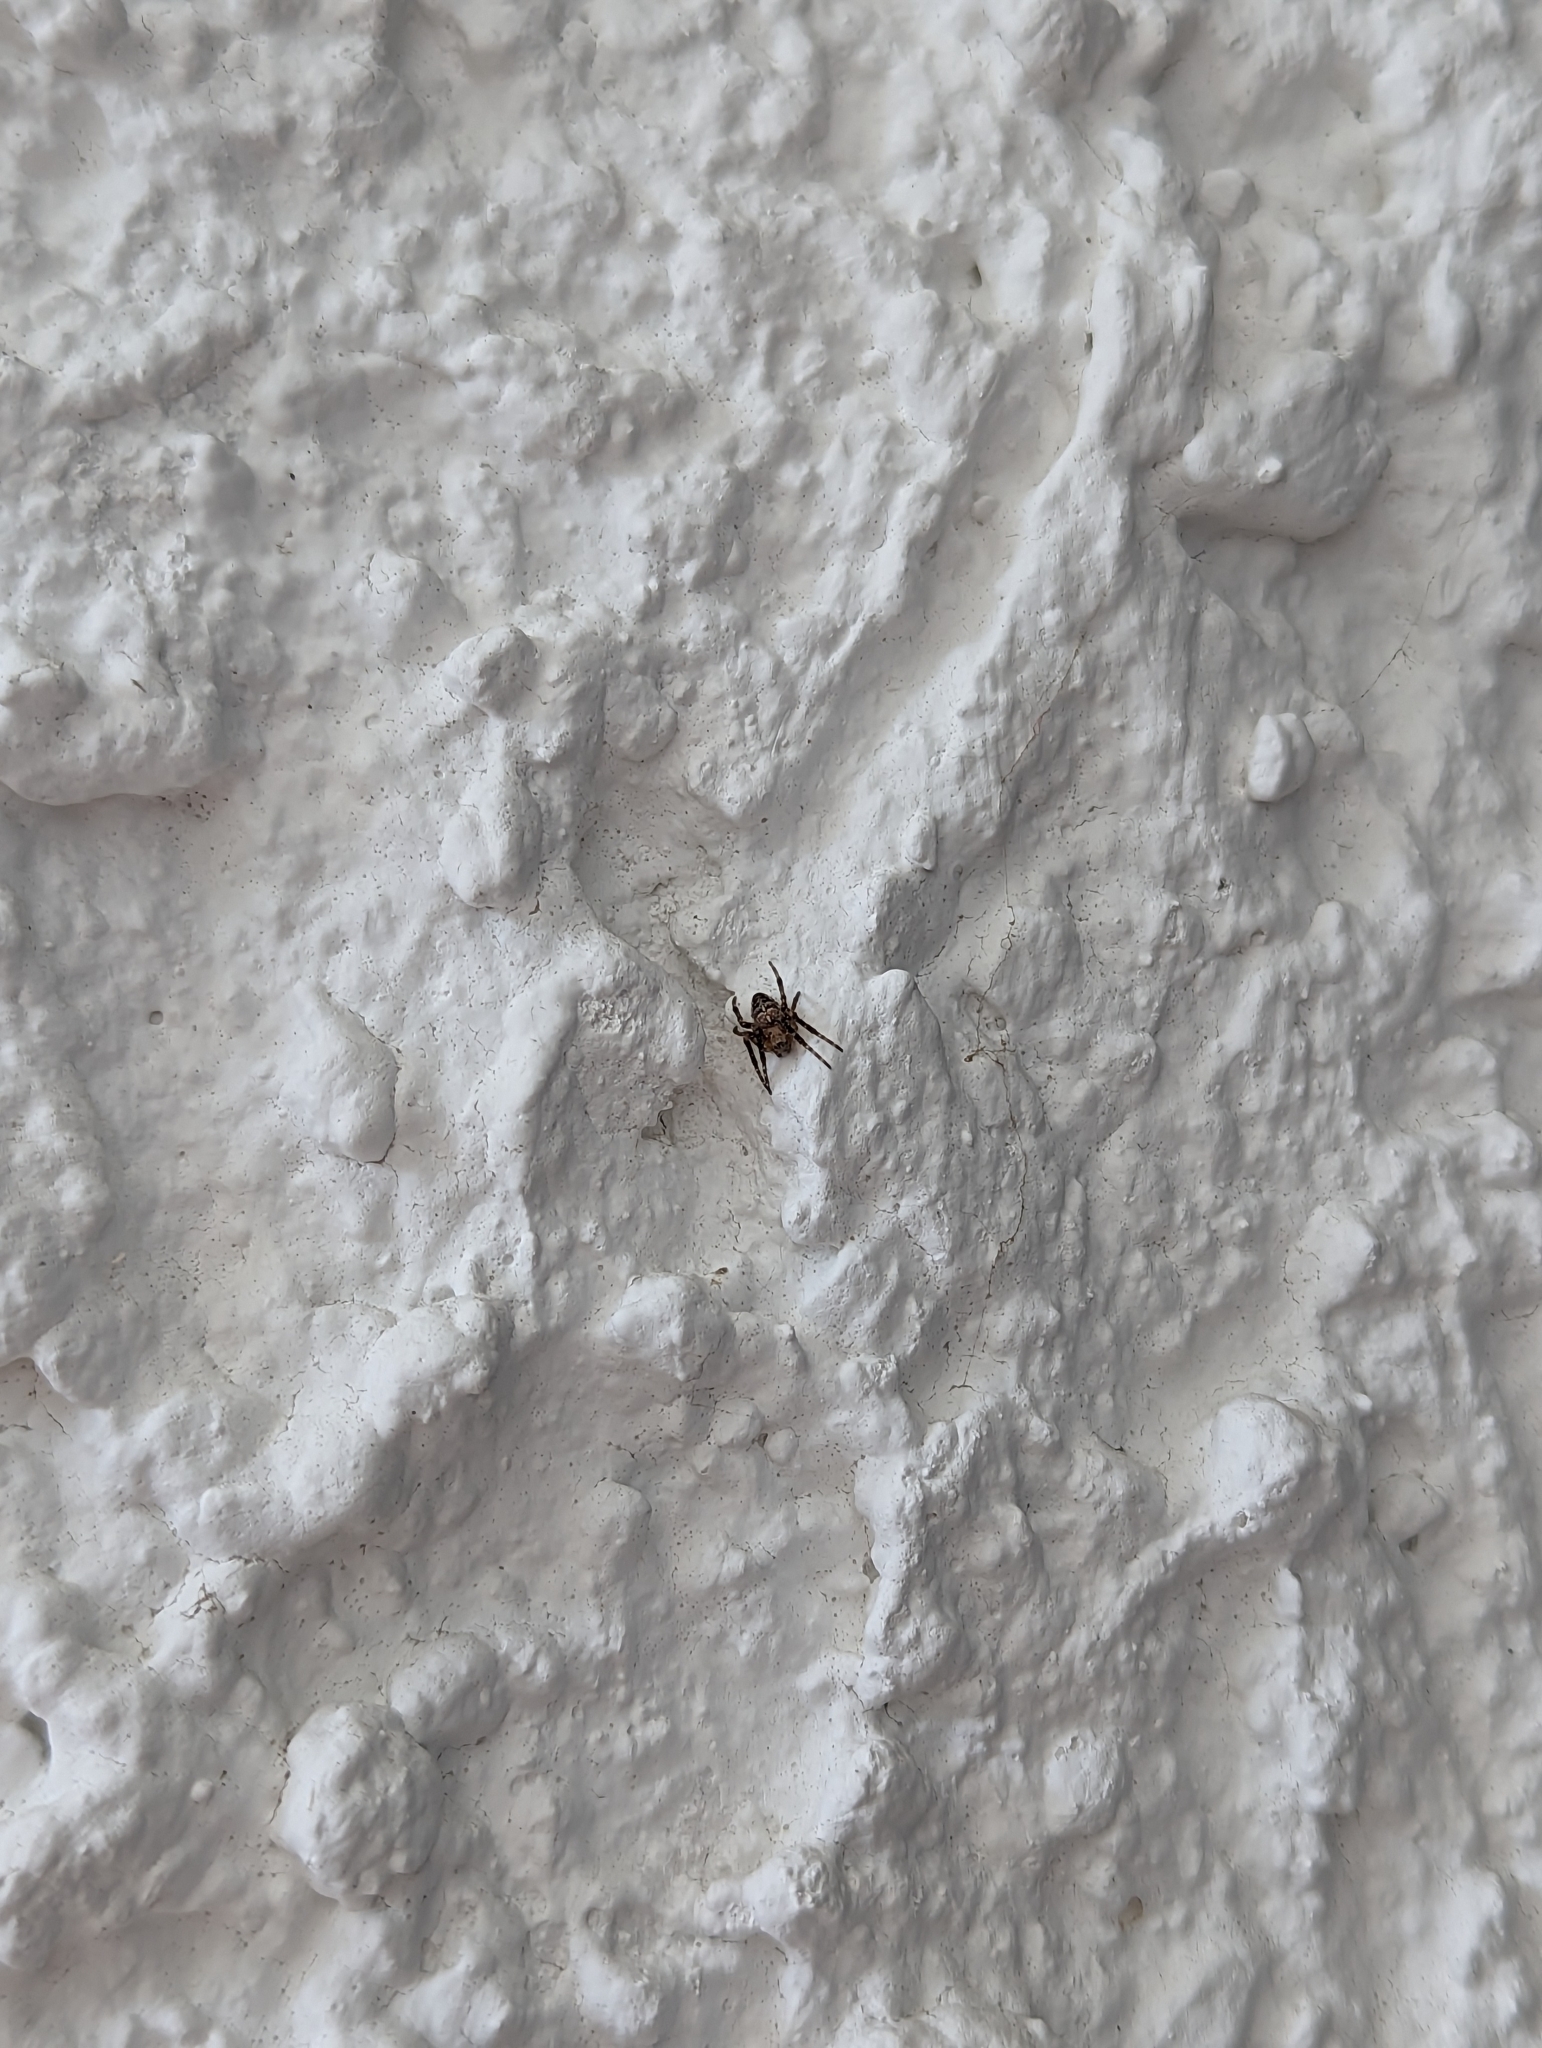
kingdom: Animalia
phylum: Arthropoda
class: Arachnida
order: Araneae
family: Araneidae
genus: Araneus
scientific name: Araneus diadematus
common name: Cross orbweaver
